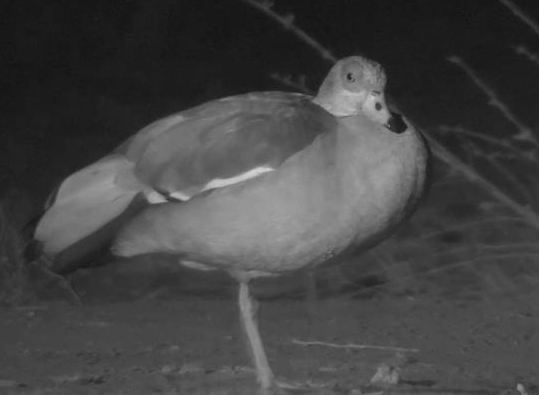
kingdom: Animalia
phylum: Chordata
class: Aves
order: Anseriformes
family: Anatidae
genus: Alopochen
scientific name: Alopochen aegyptiaca
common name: Egyptian goose
